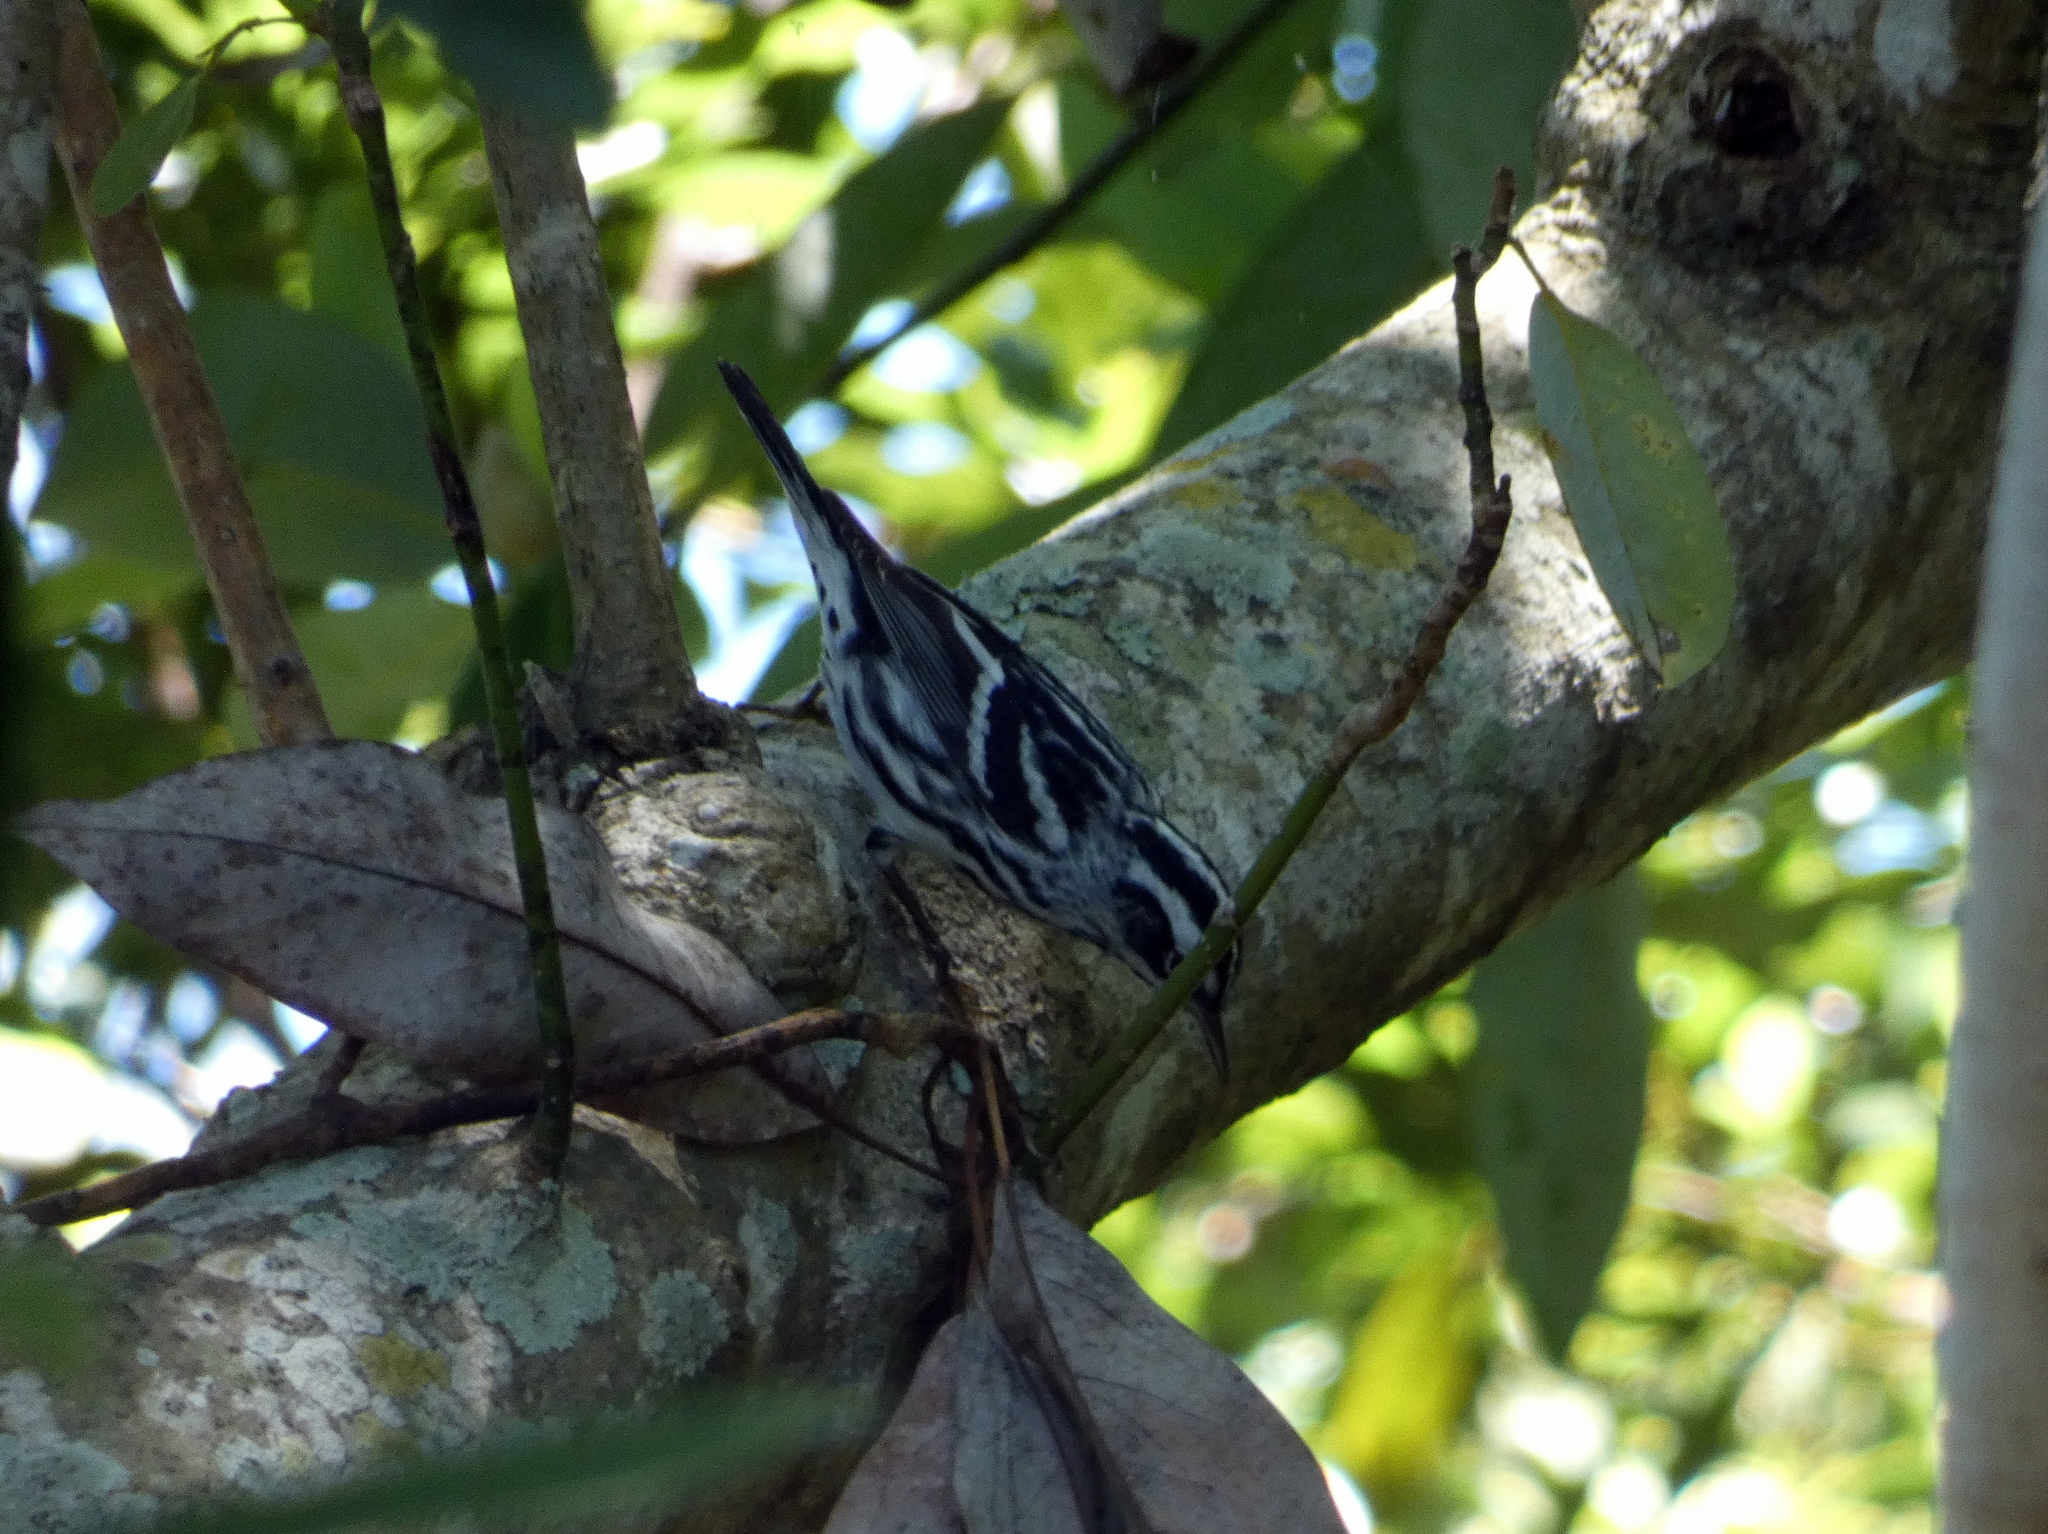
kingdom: Animalia
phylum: Chordata
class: Aves
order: Passeriformes
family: Parulidae
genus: Mniotilta
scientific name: Mniotilta varia
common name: Black-and-white warbler
